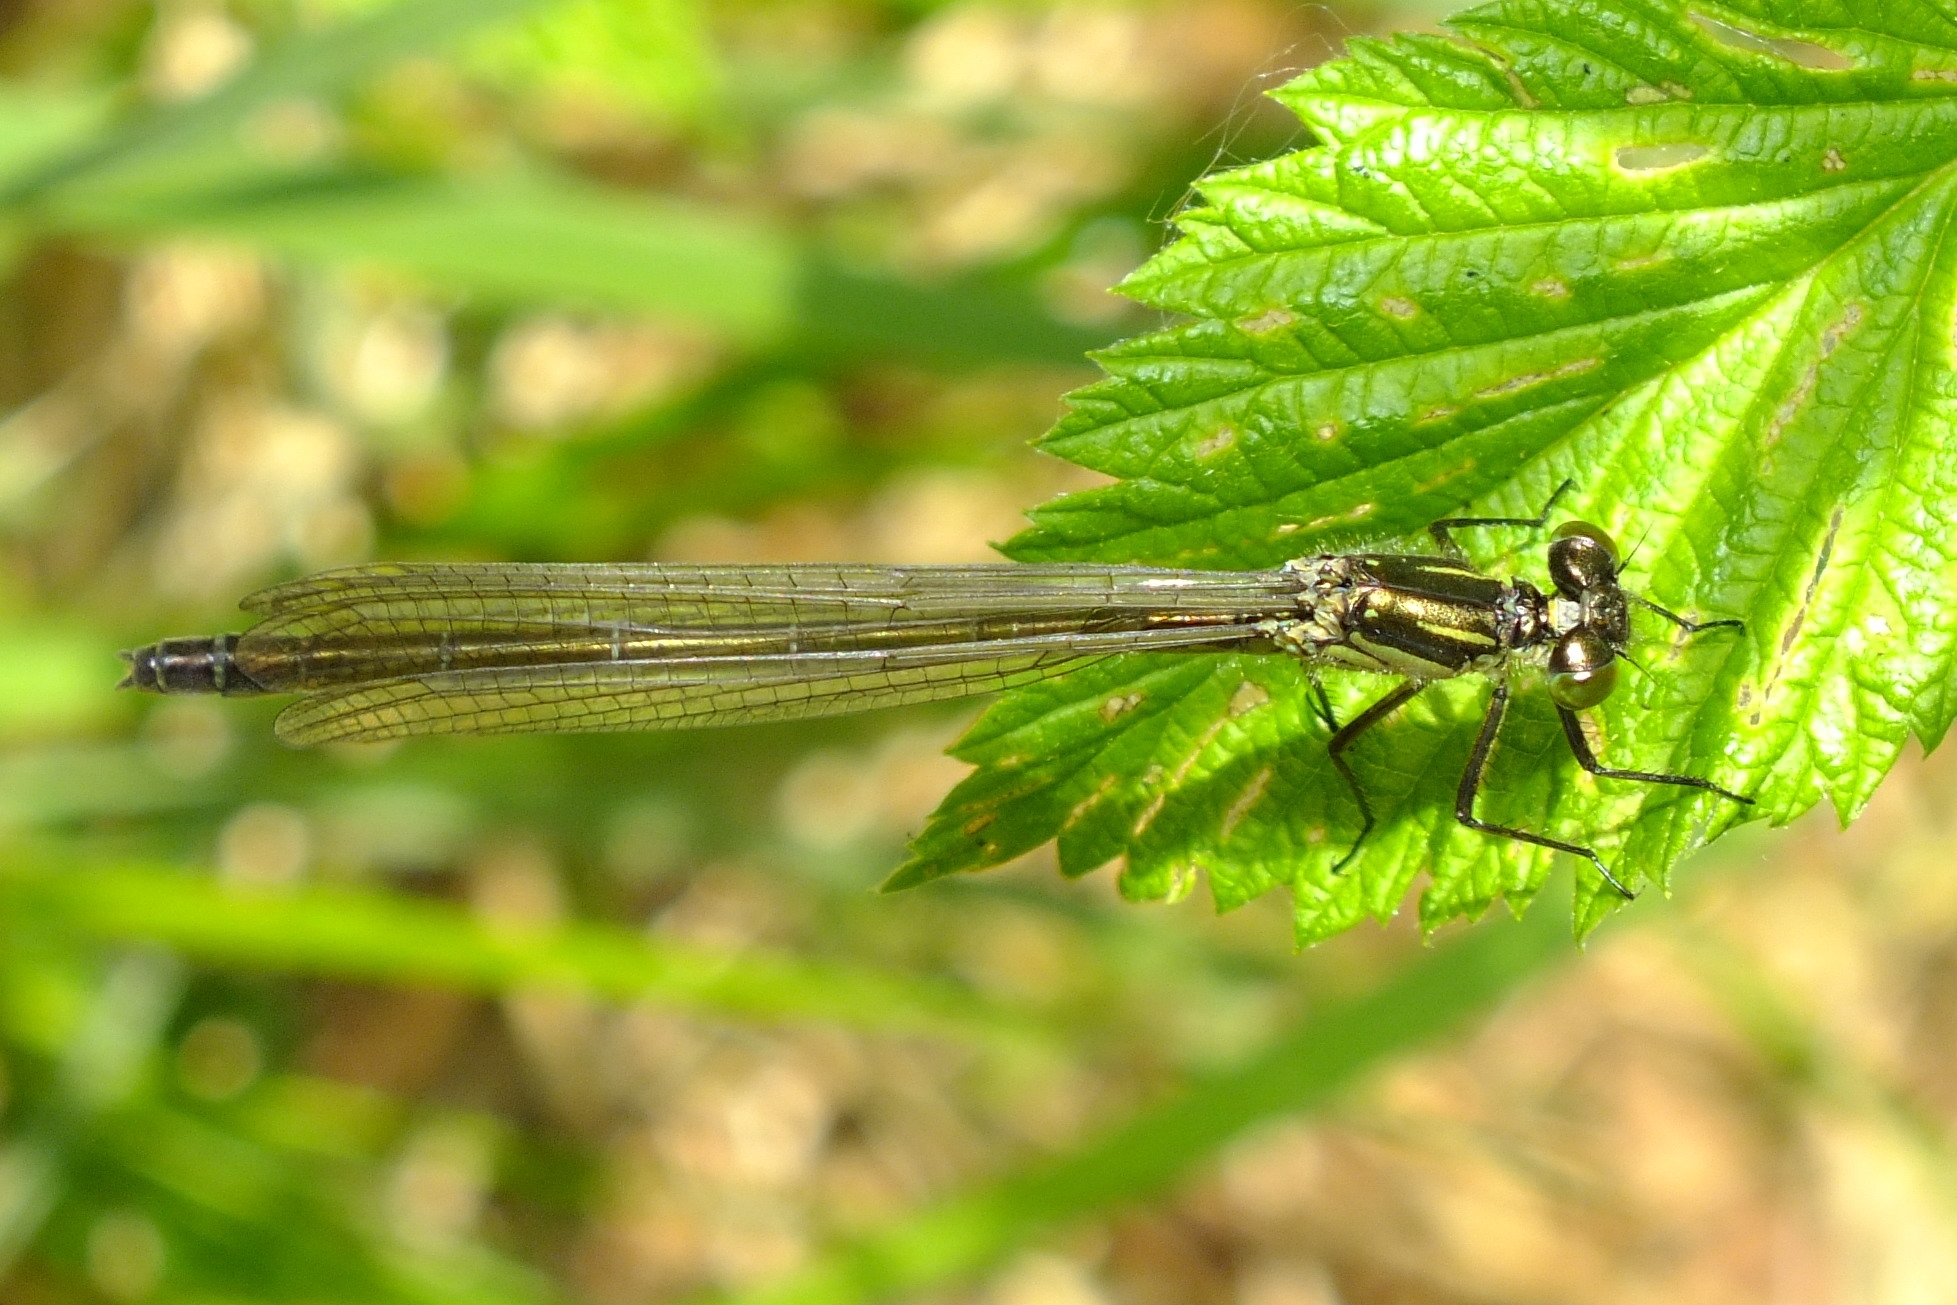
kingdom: Animalia
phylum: Arthropoda
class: Insecta
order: Odonata
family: Coenagrionidae
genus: Erythromma
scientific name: Erythromma najas
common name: Red-eyed damselfly
